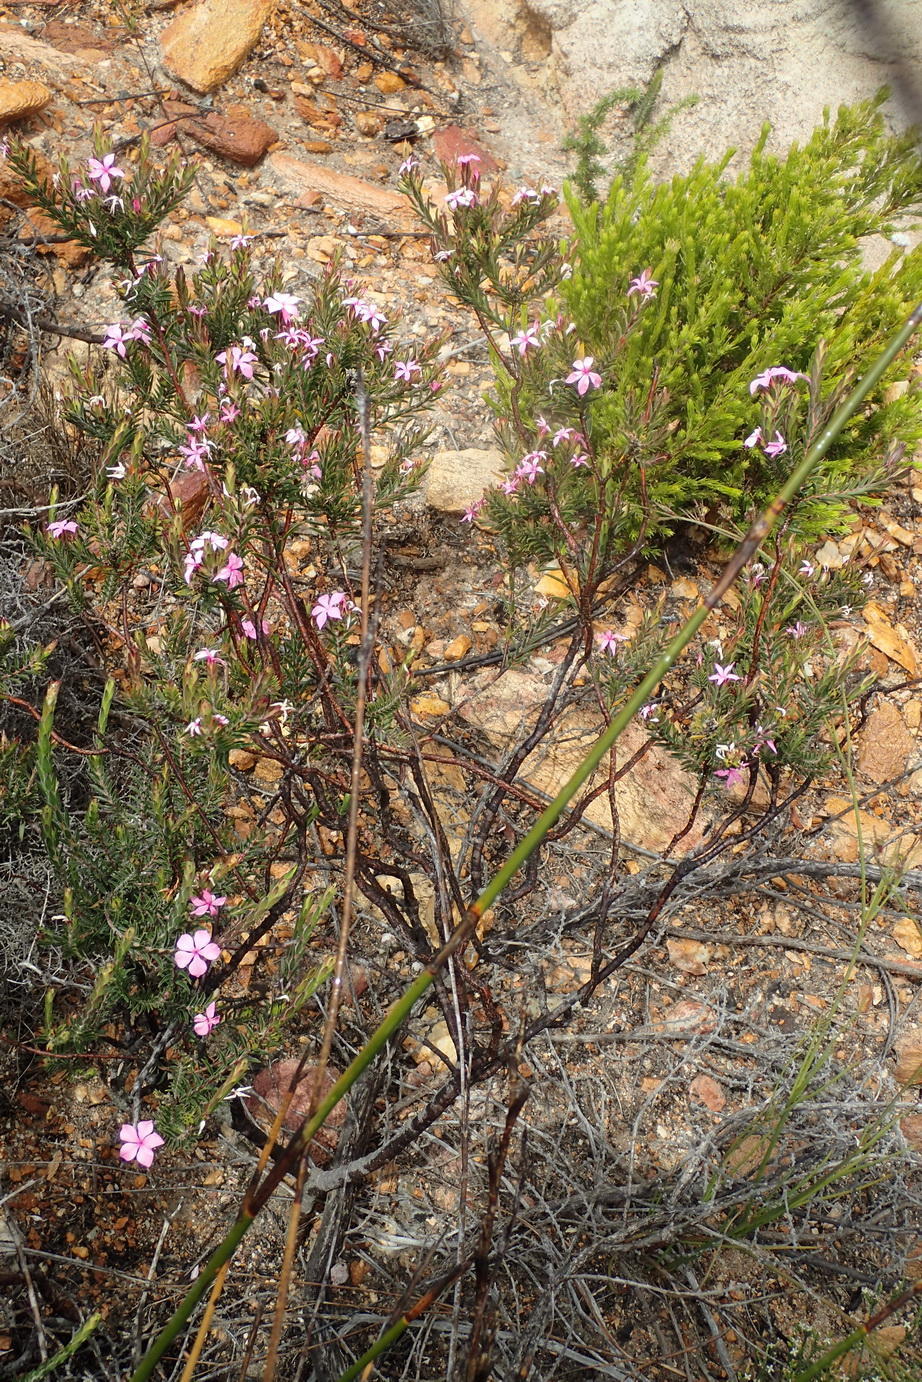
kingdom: Plantae
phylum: Tracheophyta
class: Magnoliopsida
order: Sapindales
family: Rutaceae
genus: Acmadenia
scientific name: Acmadenia latifolia
